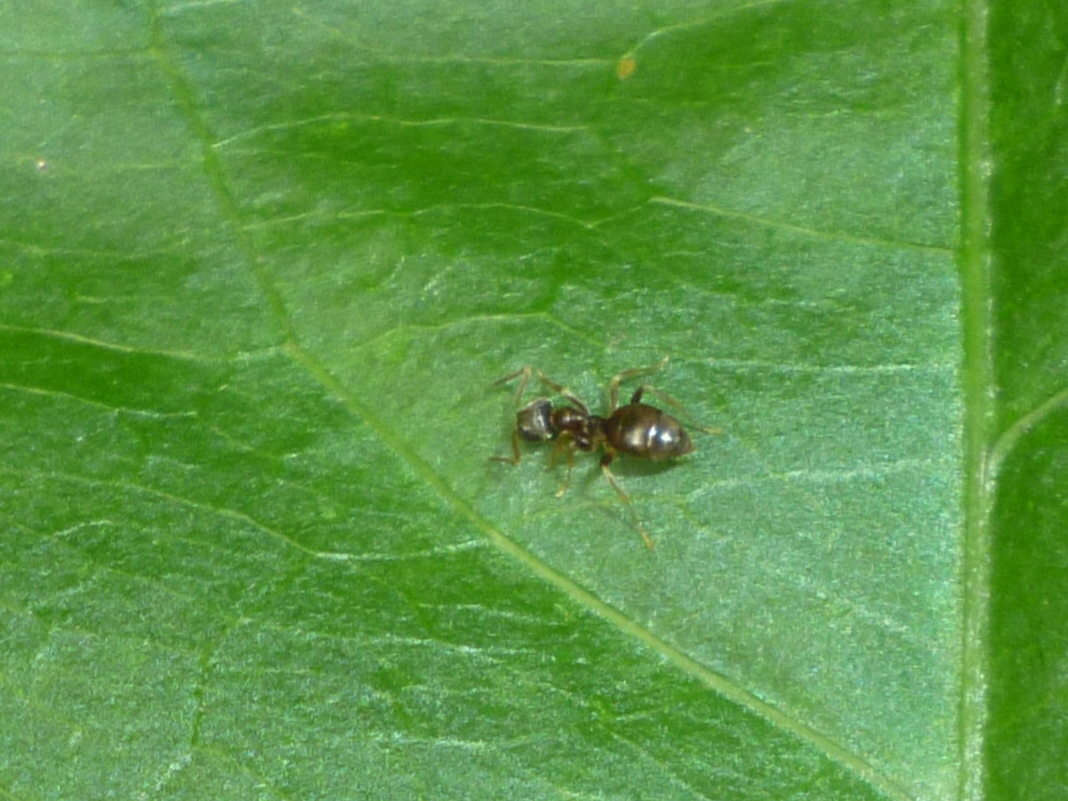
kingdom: Animalia
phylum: Arthropoda
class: Insecta
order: Hymenoptera
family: Formicidae
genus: Lasius
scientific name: Lasius
